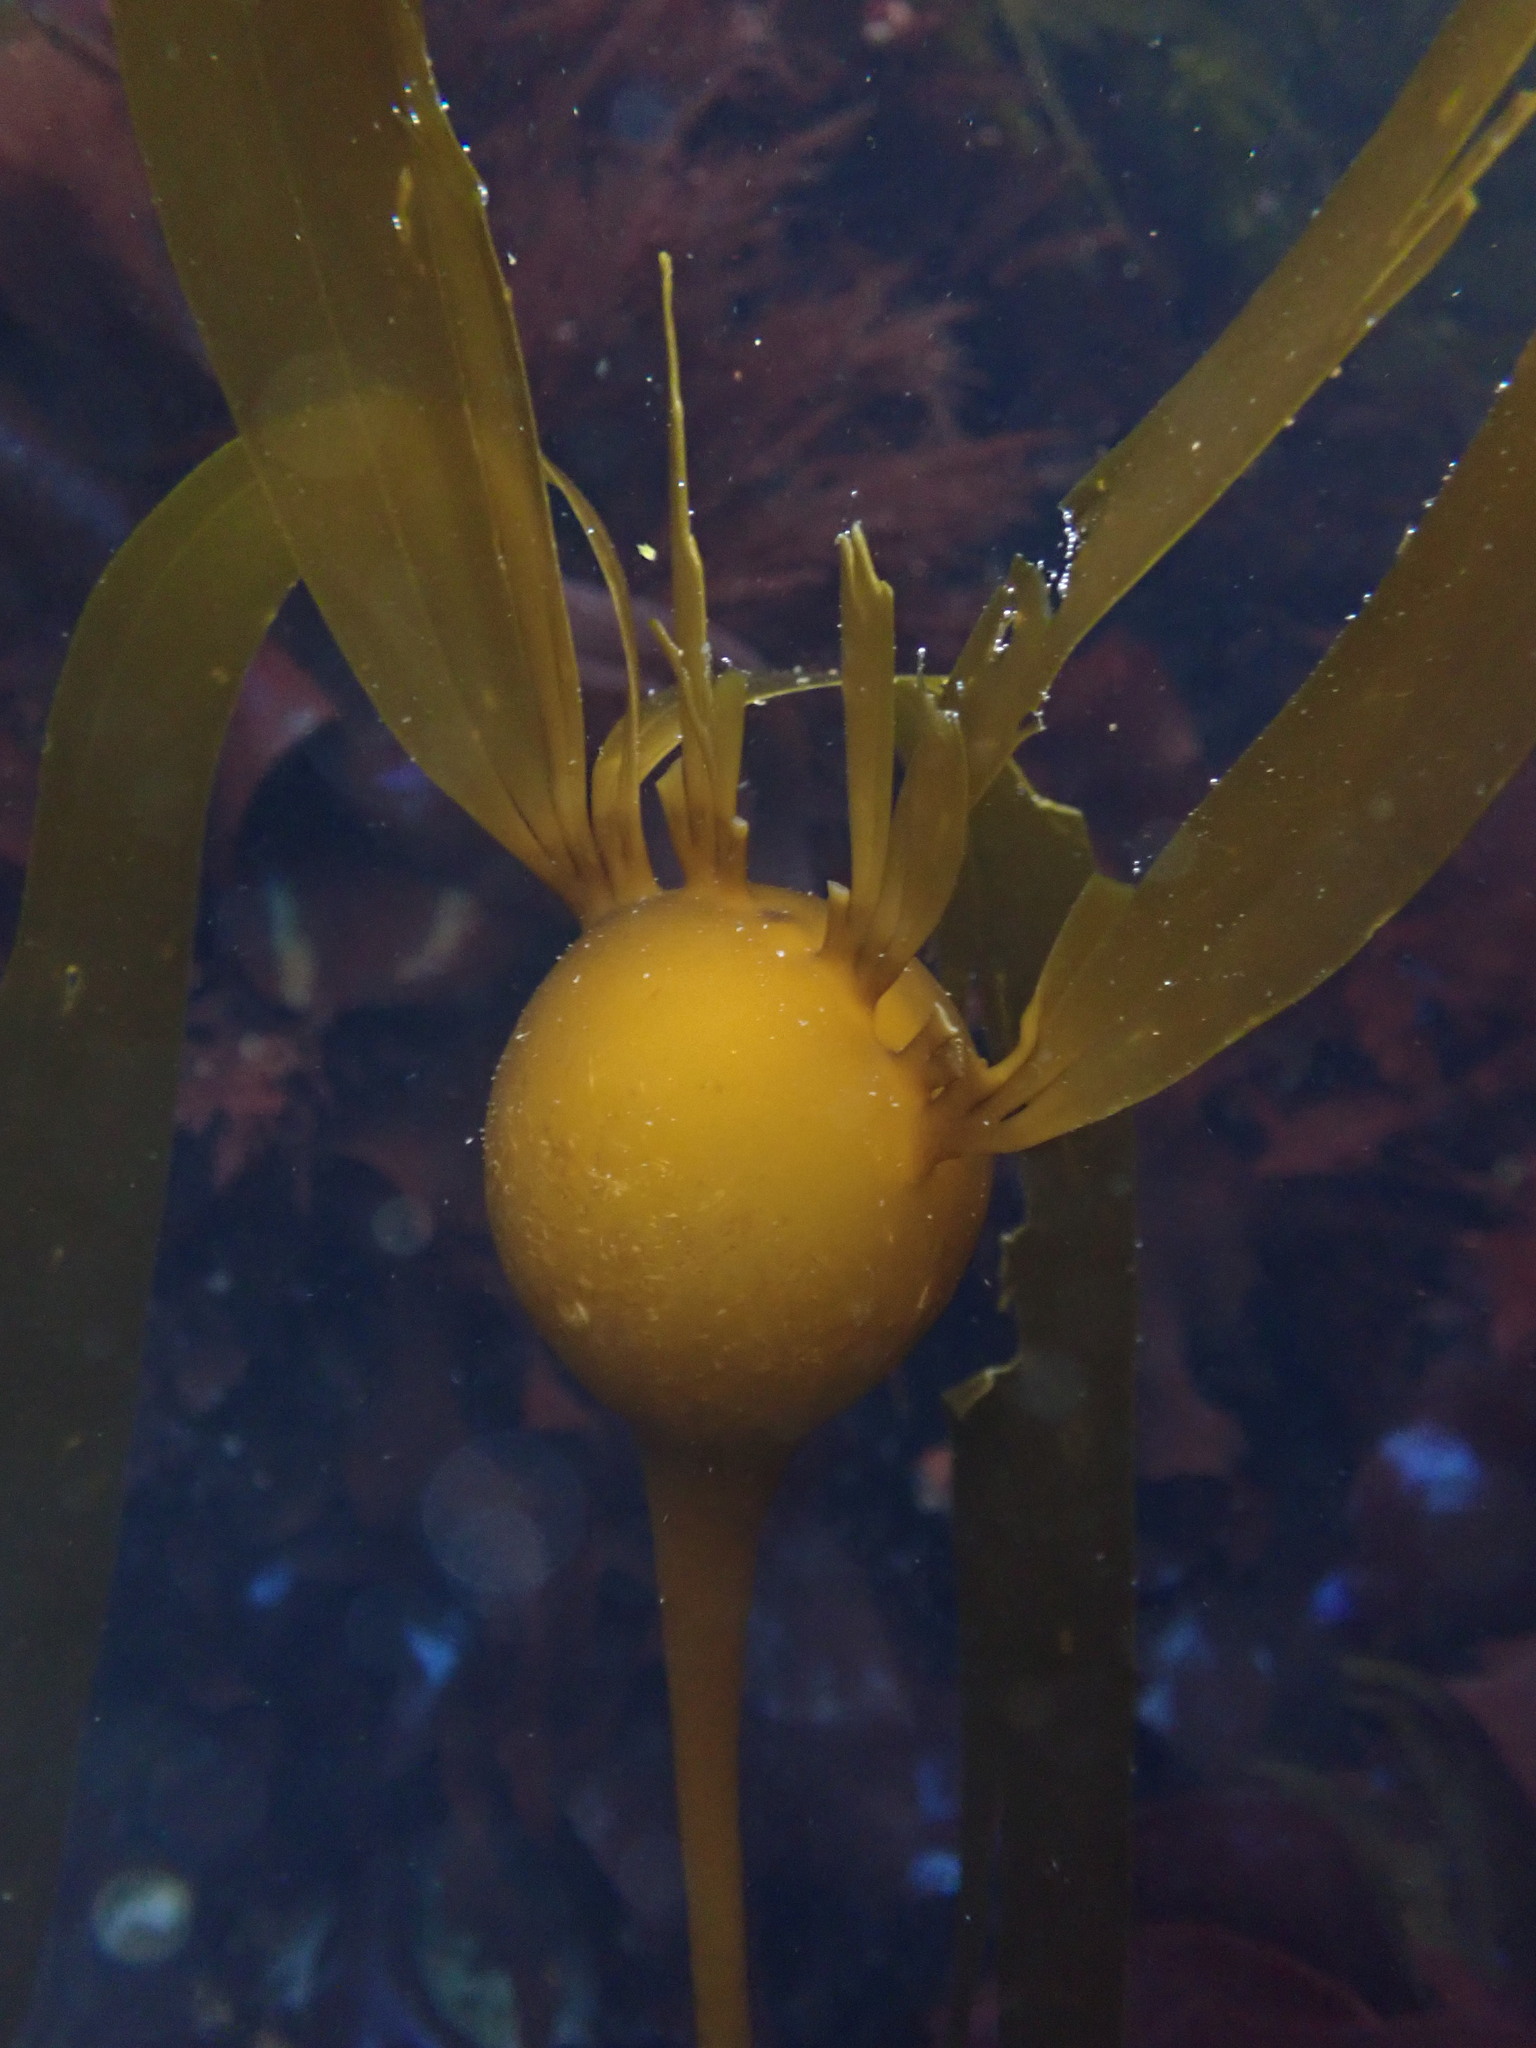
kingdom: Chromista
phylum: Ochrophyta
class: Phaeophyceae
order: Laminariales
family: Laminariaceae
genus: Nereocystis
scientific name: Nereocystis luetkeana
